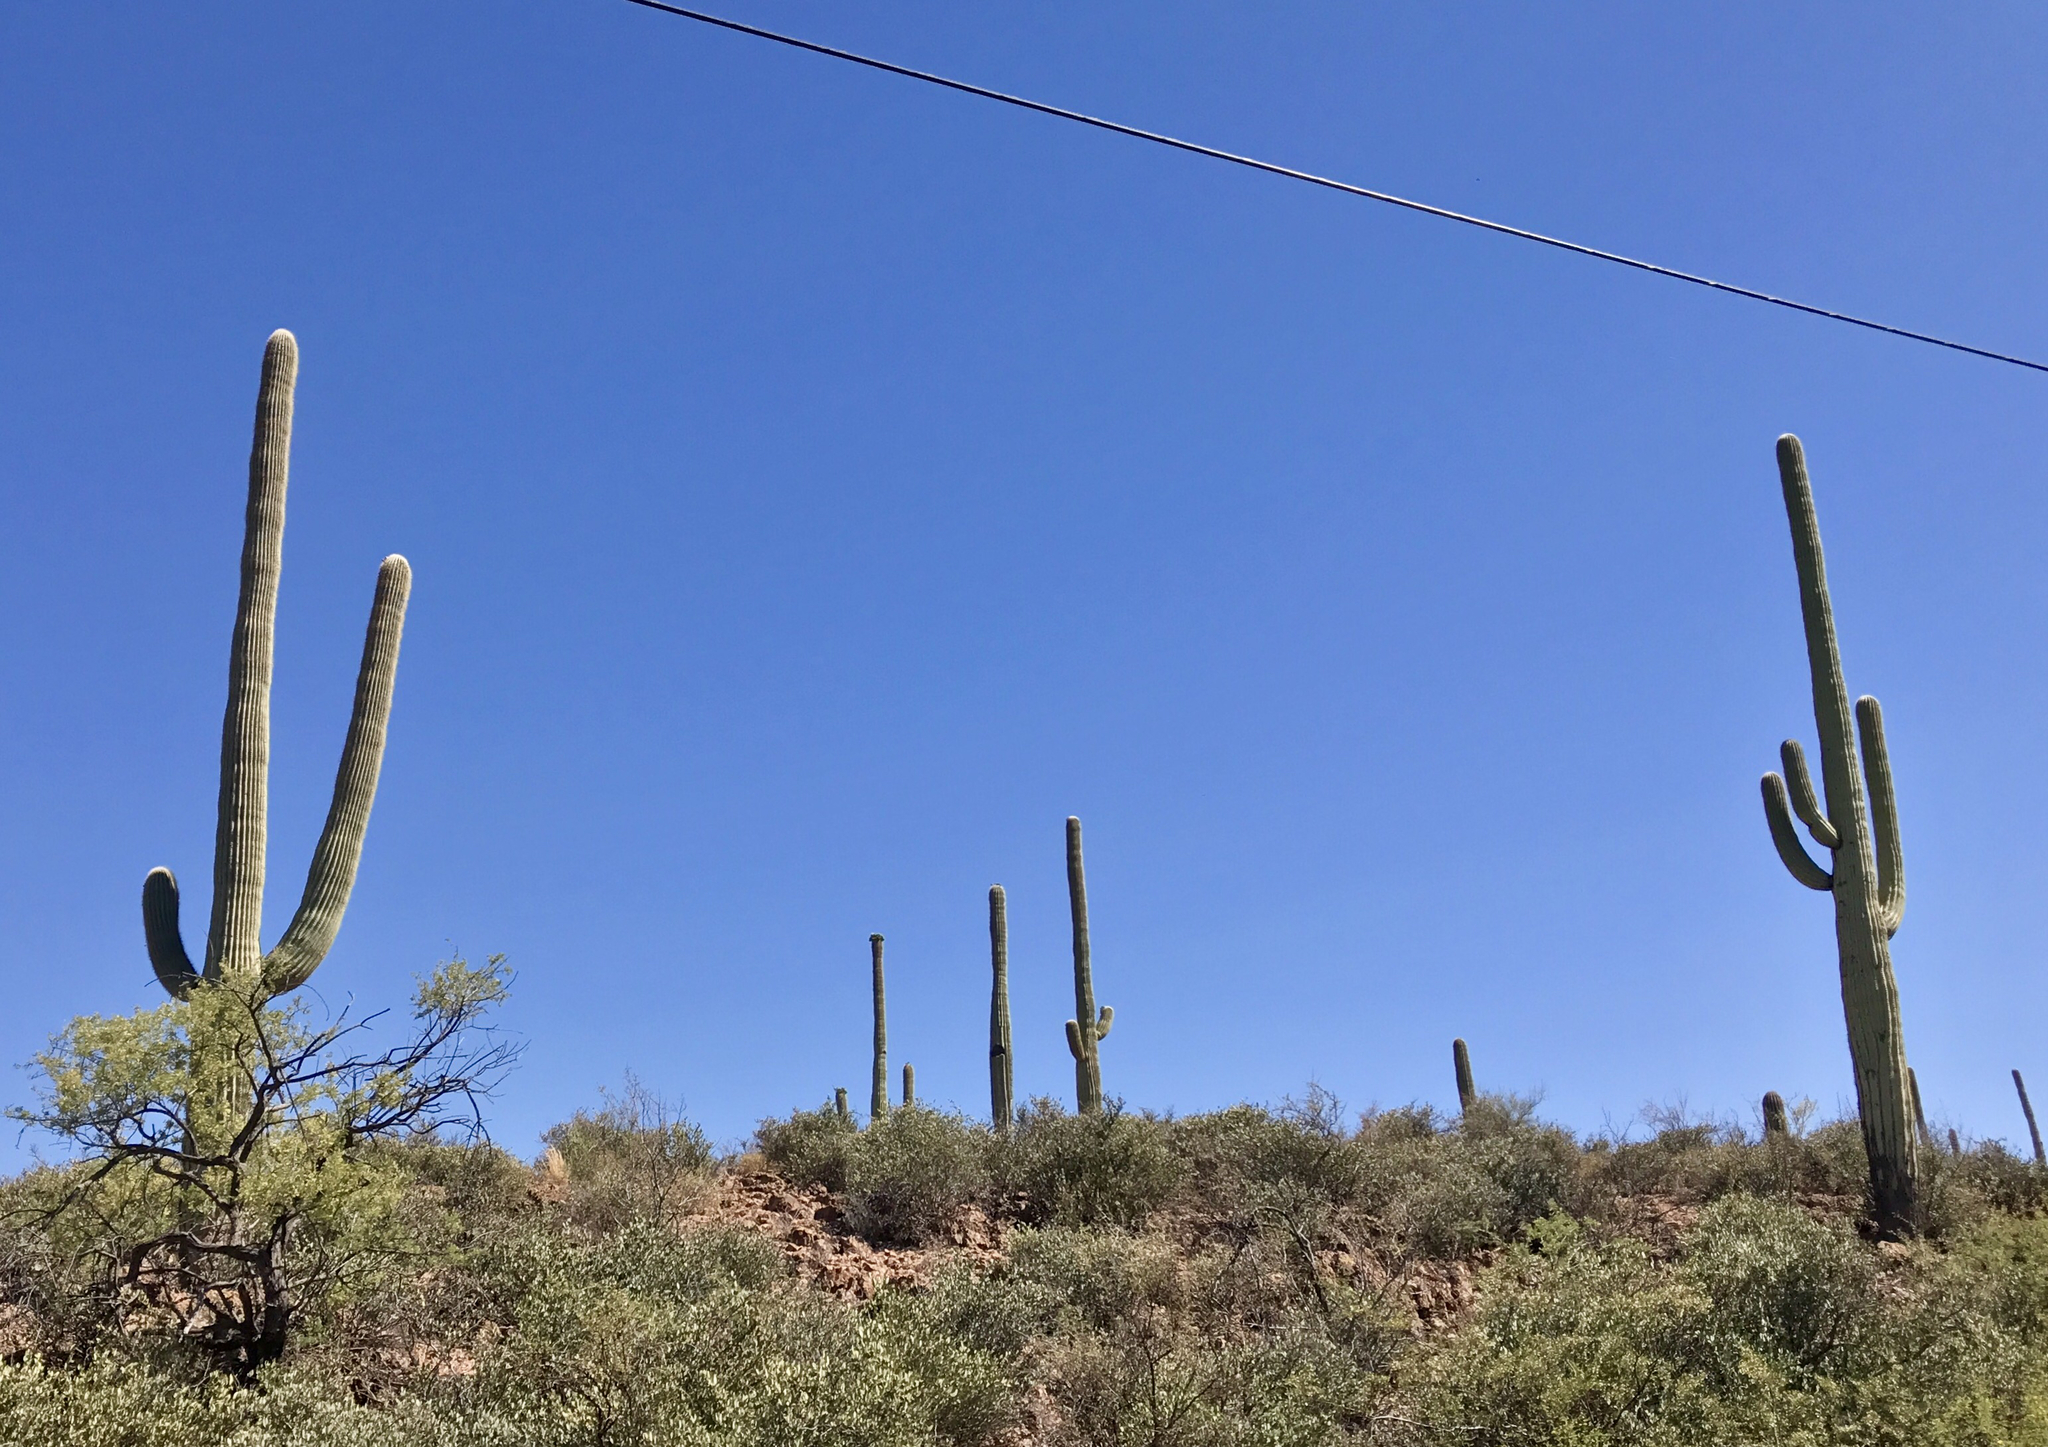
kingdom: Plantae
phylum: Tracheophyta
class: Magnoliopsida
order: Caryophyllales
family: Cactaceae
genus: Carnegiea
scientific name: Carnegiea gigantea
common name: Saguaro
